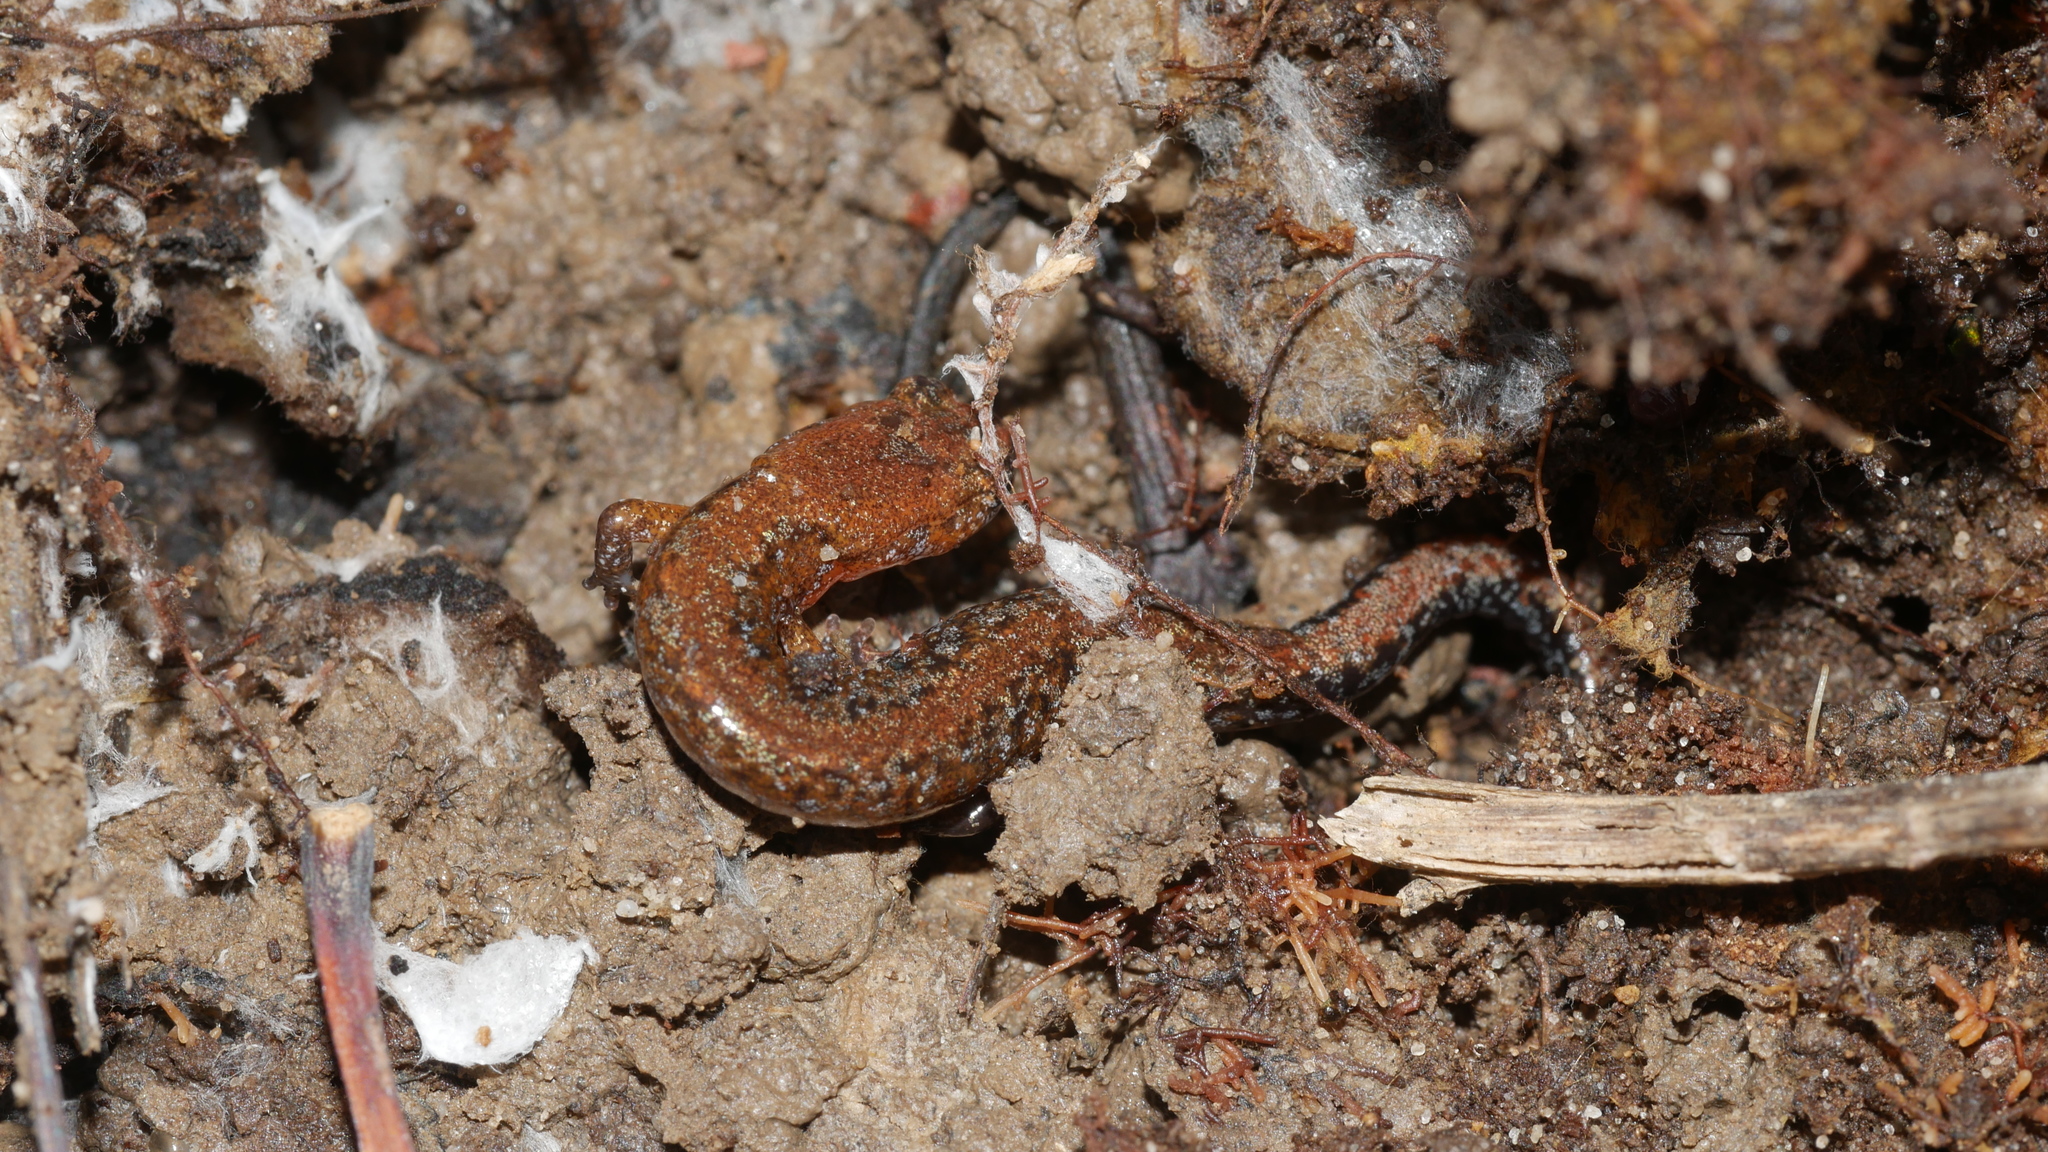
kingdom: Animalia
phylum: Chordata
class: Amphibia
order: Caudata
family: Plethodontidae
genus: Plethodon
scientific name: Plethodon
